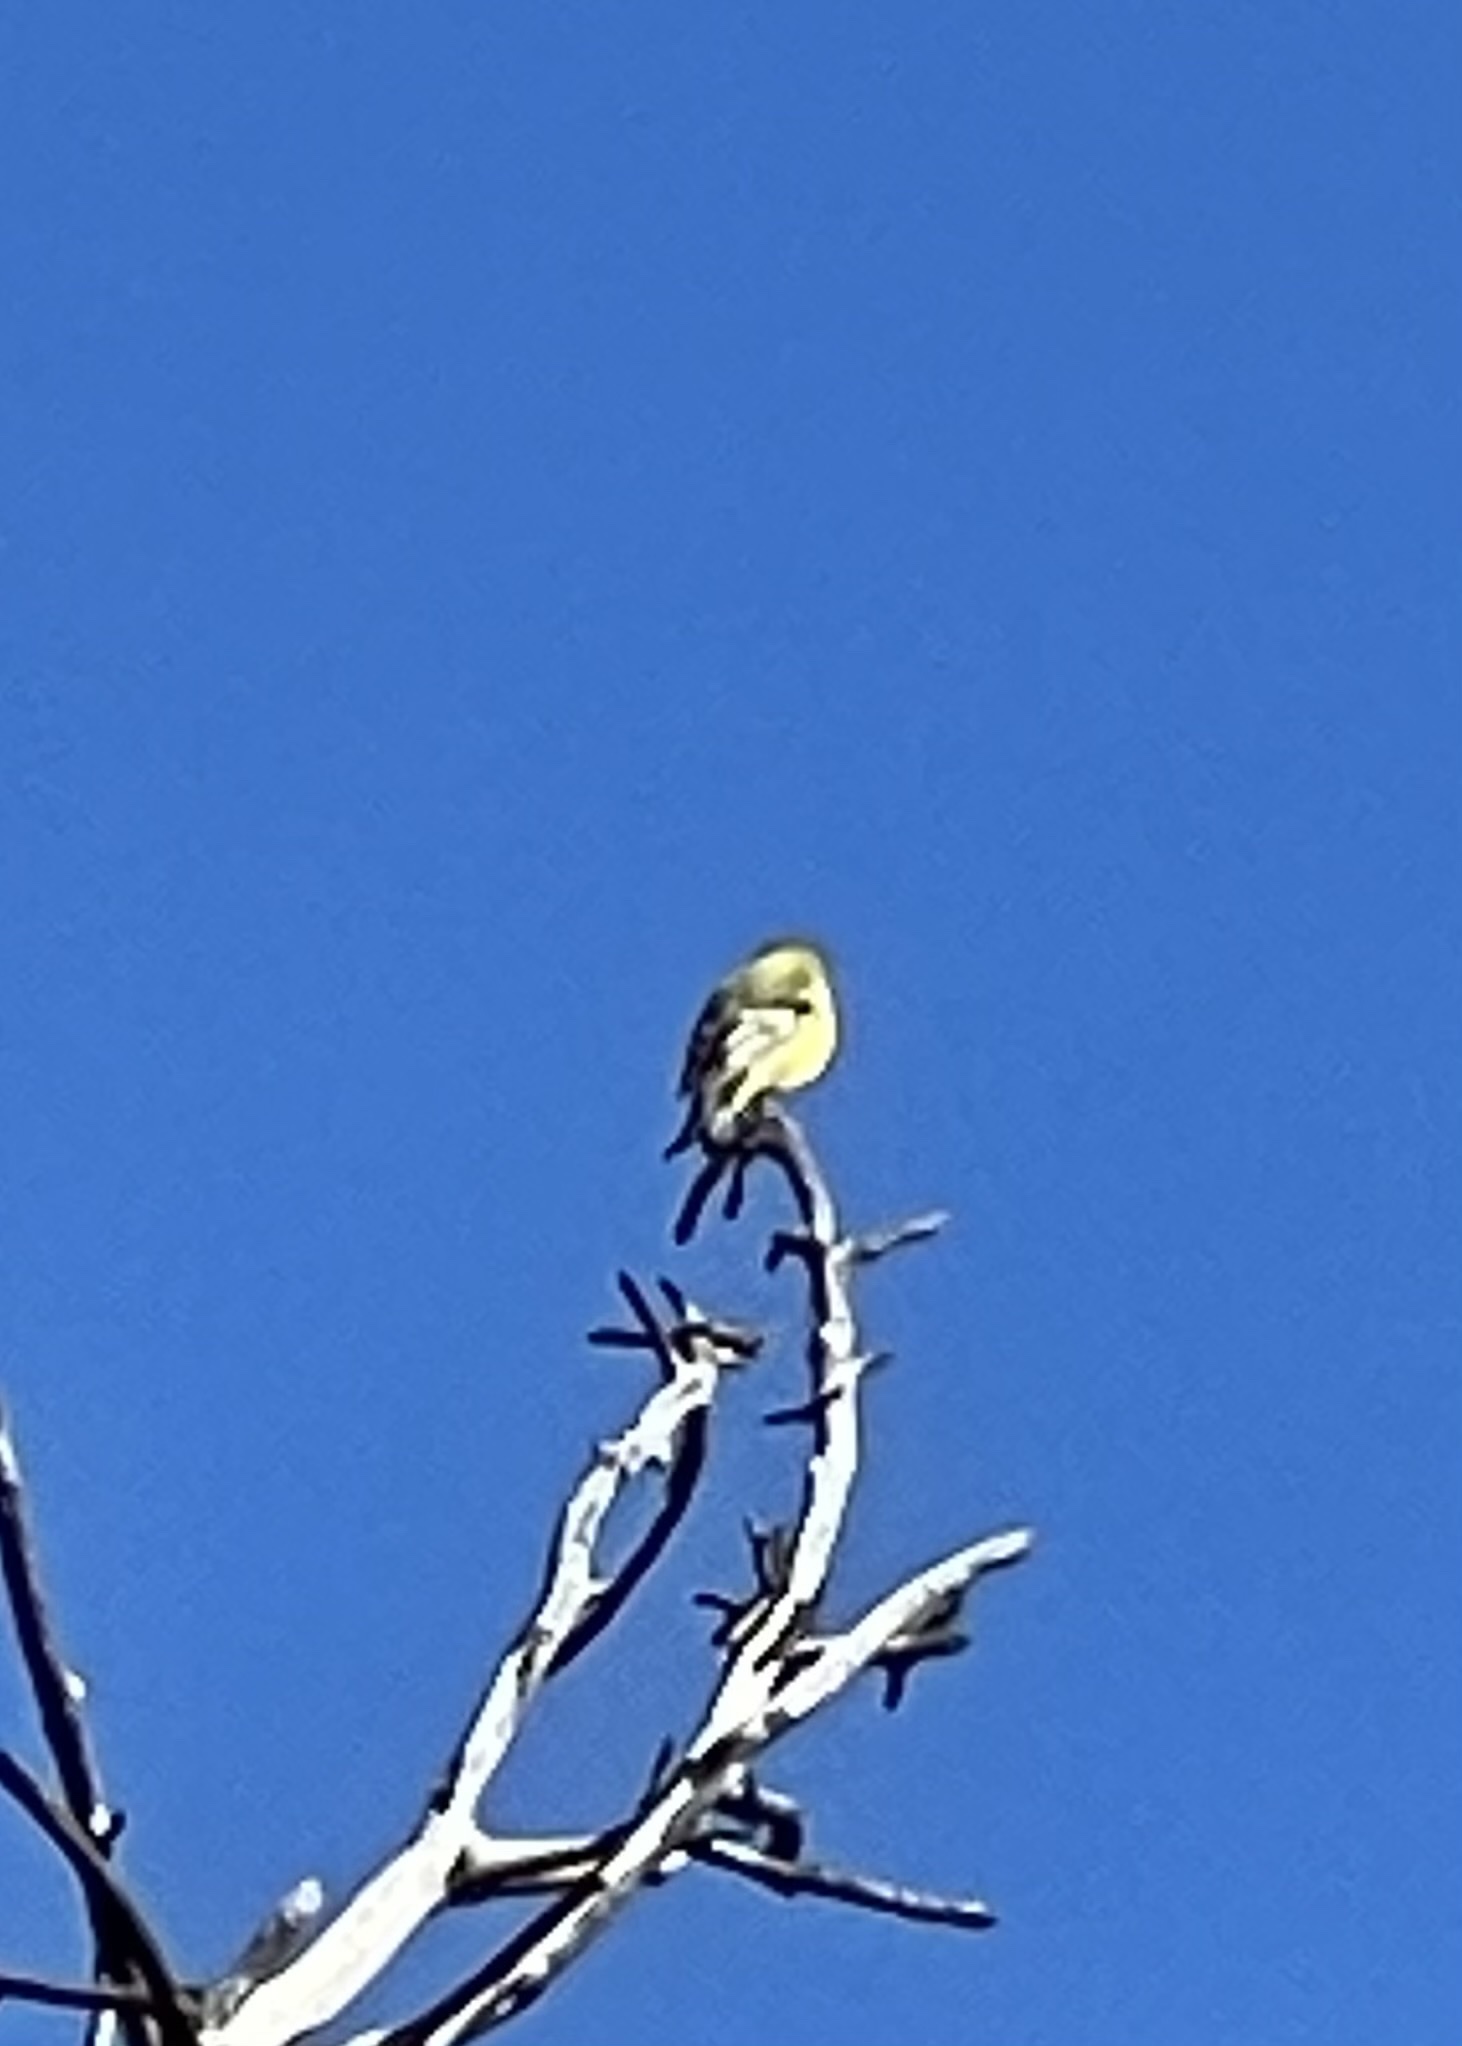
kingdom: Animalia
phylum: Chordata
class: Aves
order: Passeriformes
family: Fringillidae
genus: Spinus
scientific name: Spinus psaltria
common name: Lesser goldfinch
